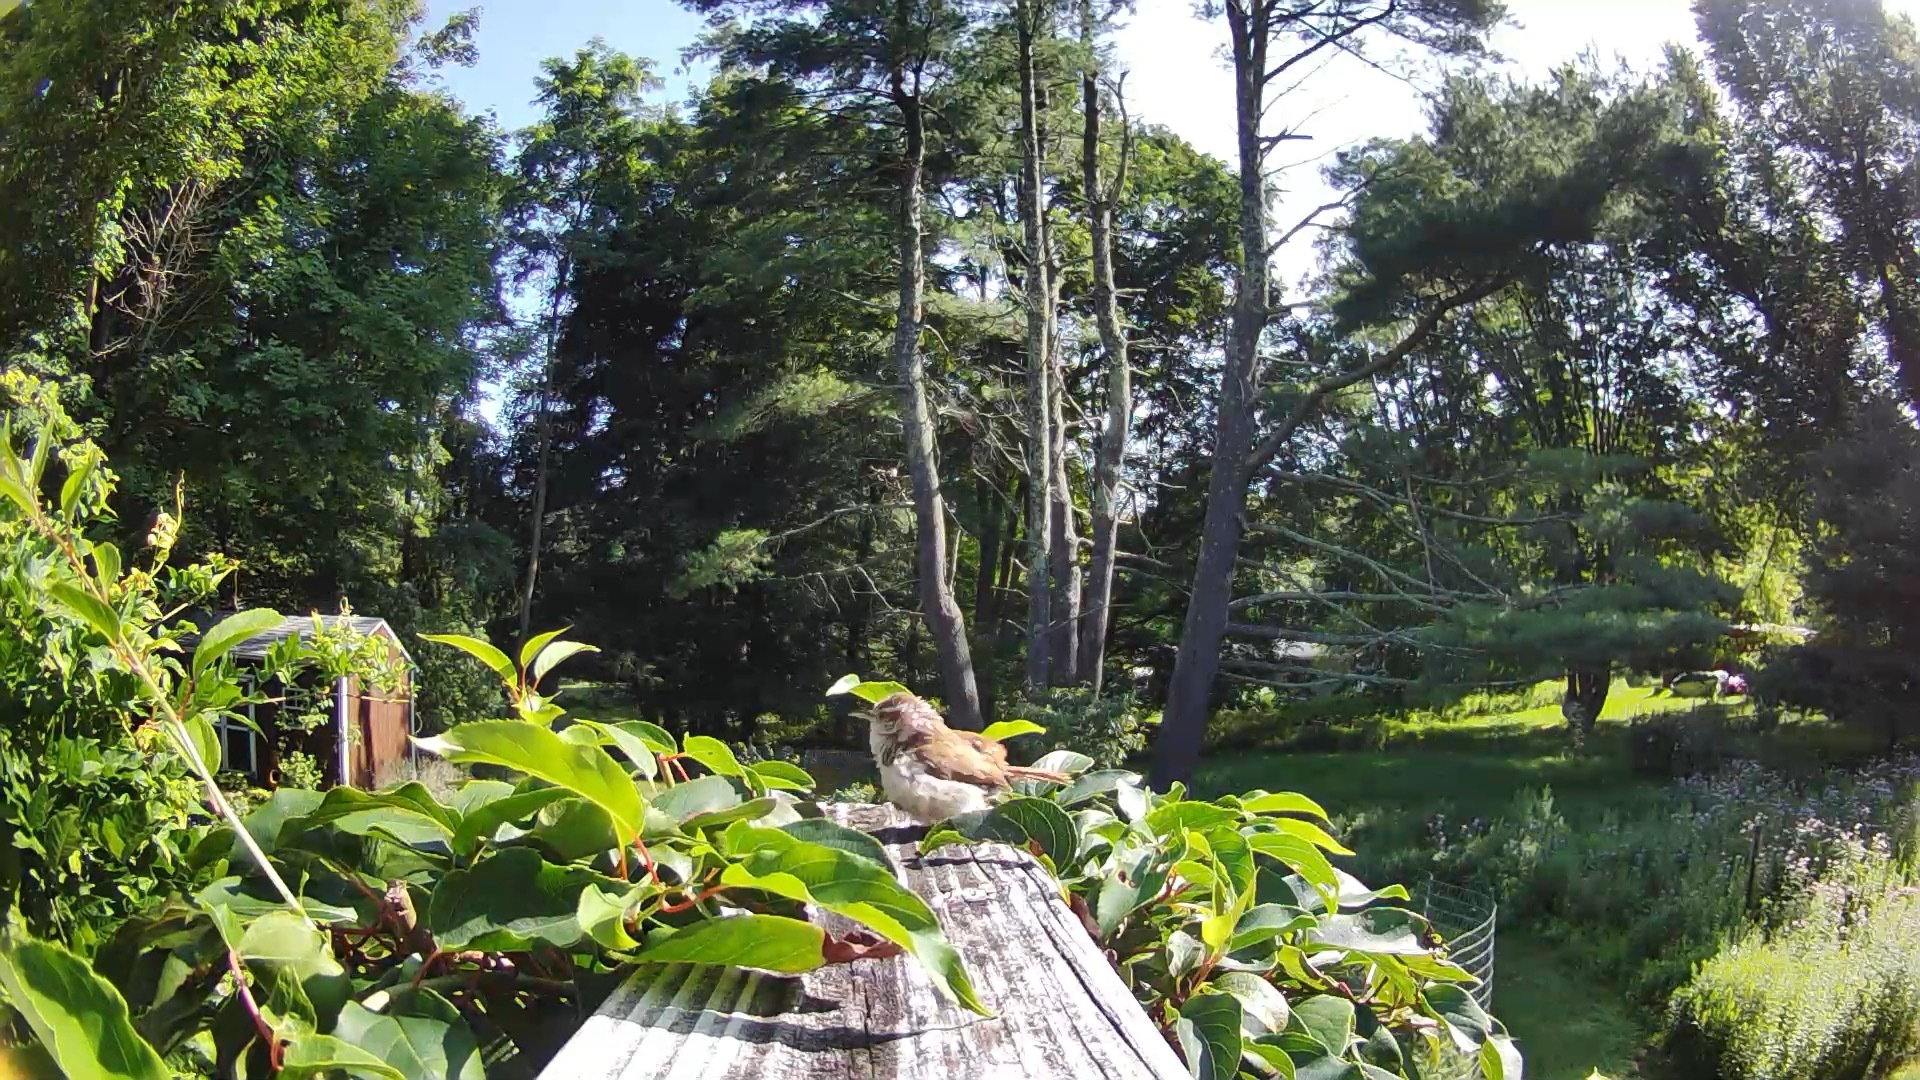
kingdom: Animalia
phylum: Chordata
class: Aves
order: Passeriformes
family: Troglodytidae
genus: Thryothorus
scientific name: Thryothorus ludovicianus
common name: Carolina wren
